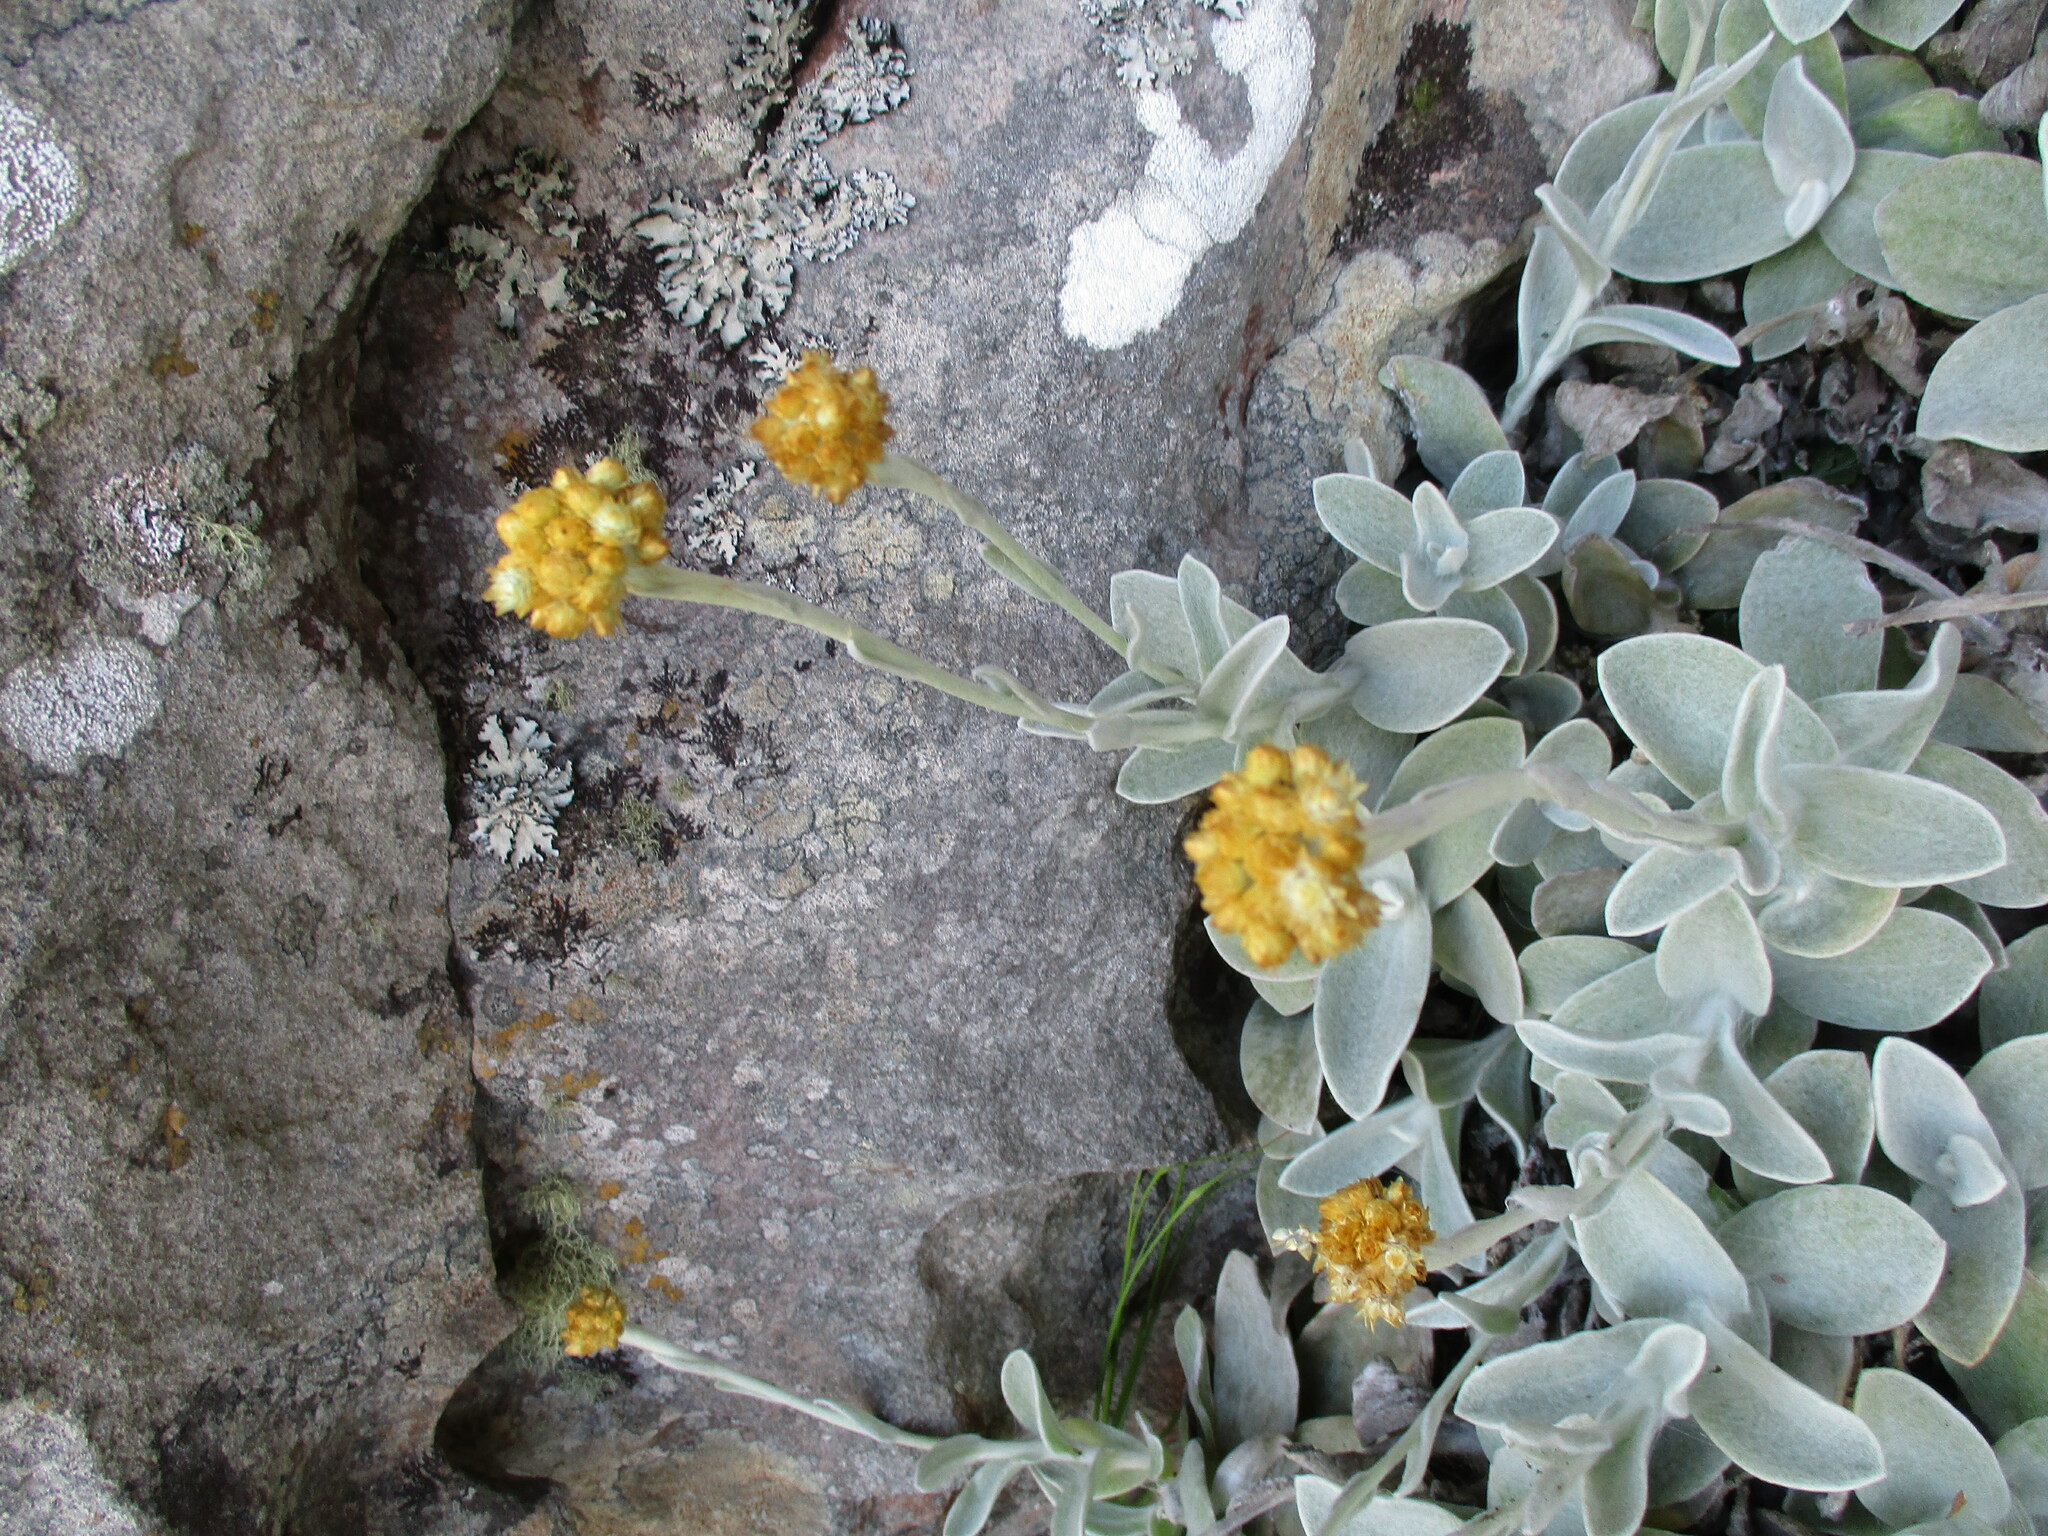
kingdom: Plantae
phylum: Tracheophyta
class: Magnoliopsida
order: Asterales
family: Asteraceae
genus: Helichrysum
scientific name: Helichrysum grandiflorum
